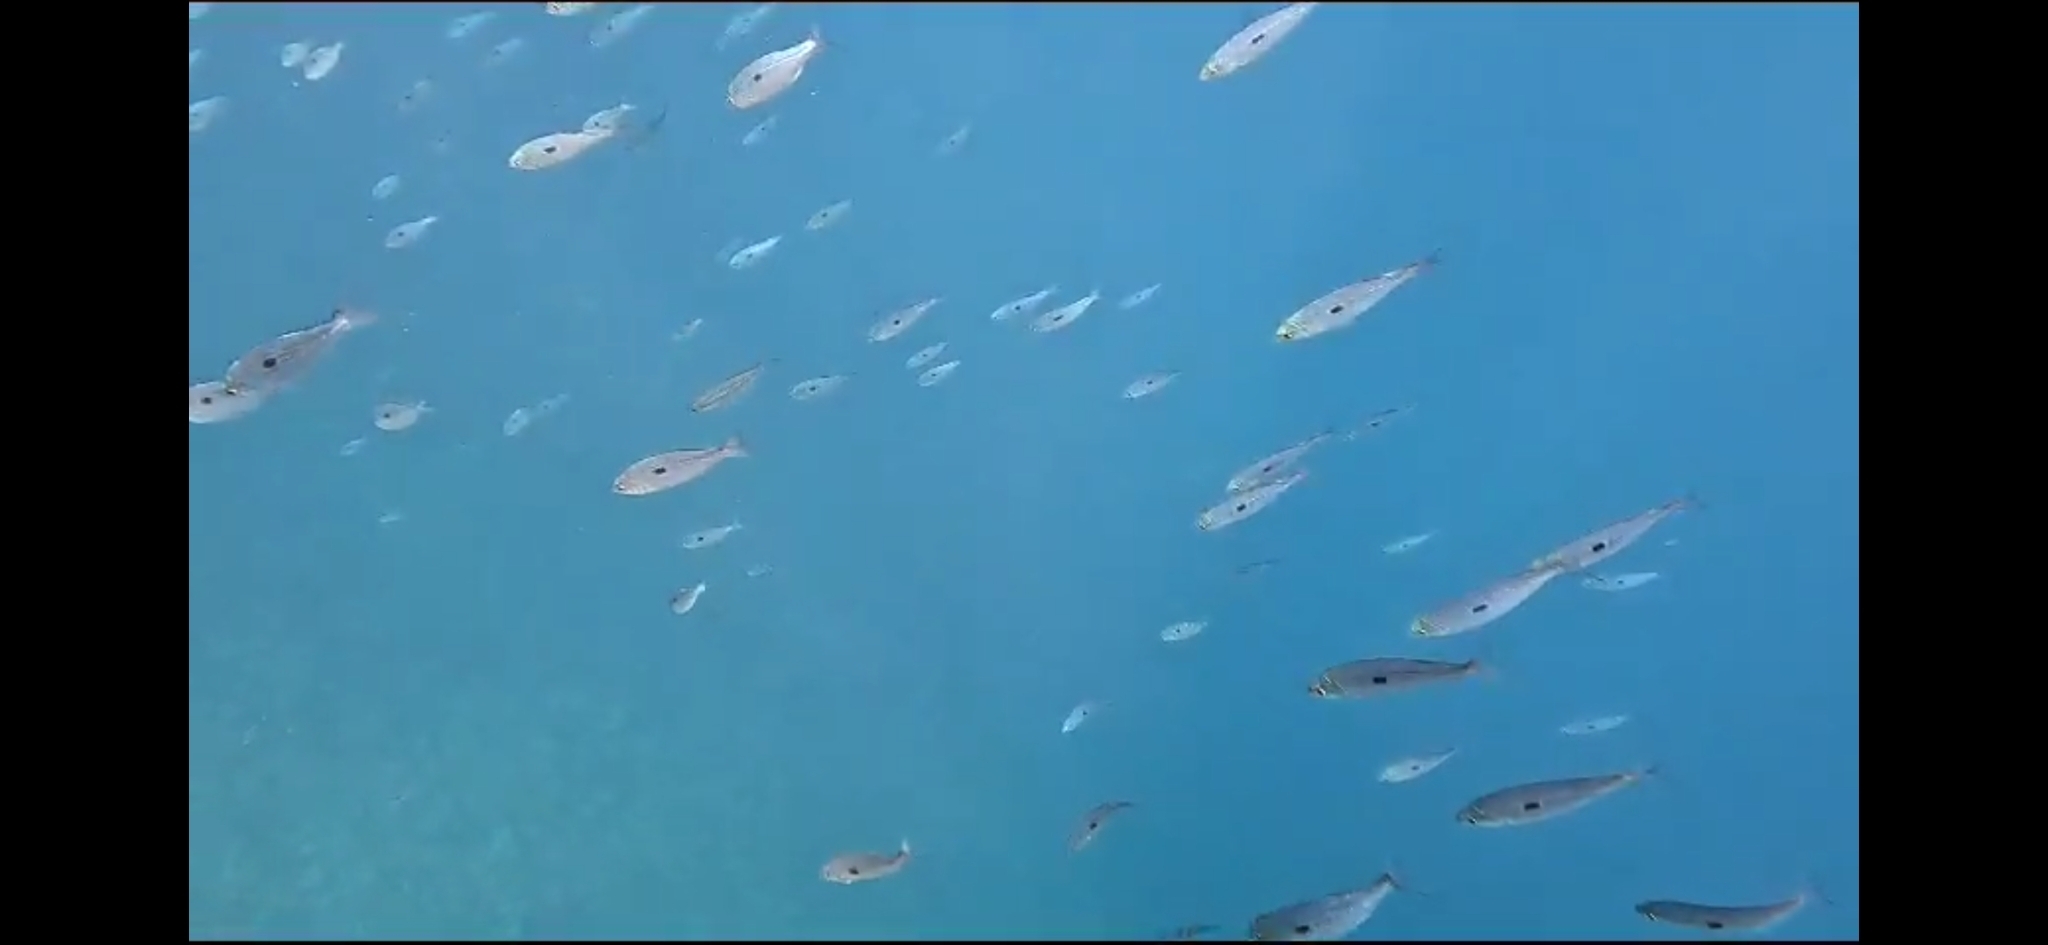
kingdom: Animalia
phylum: Chordata
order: Perciformes
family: Sparidae
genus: Spicara
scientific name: Spicara smaris
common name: Picarel
